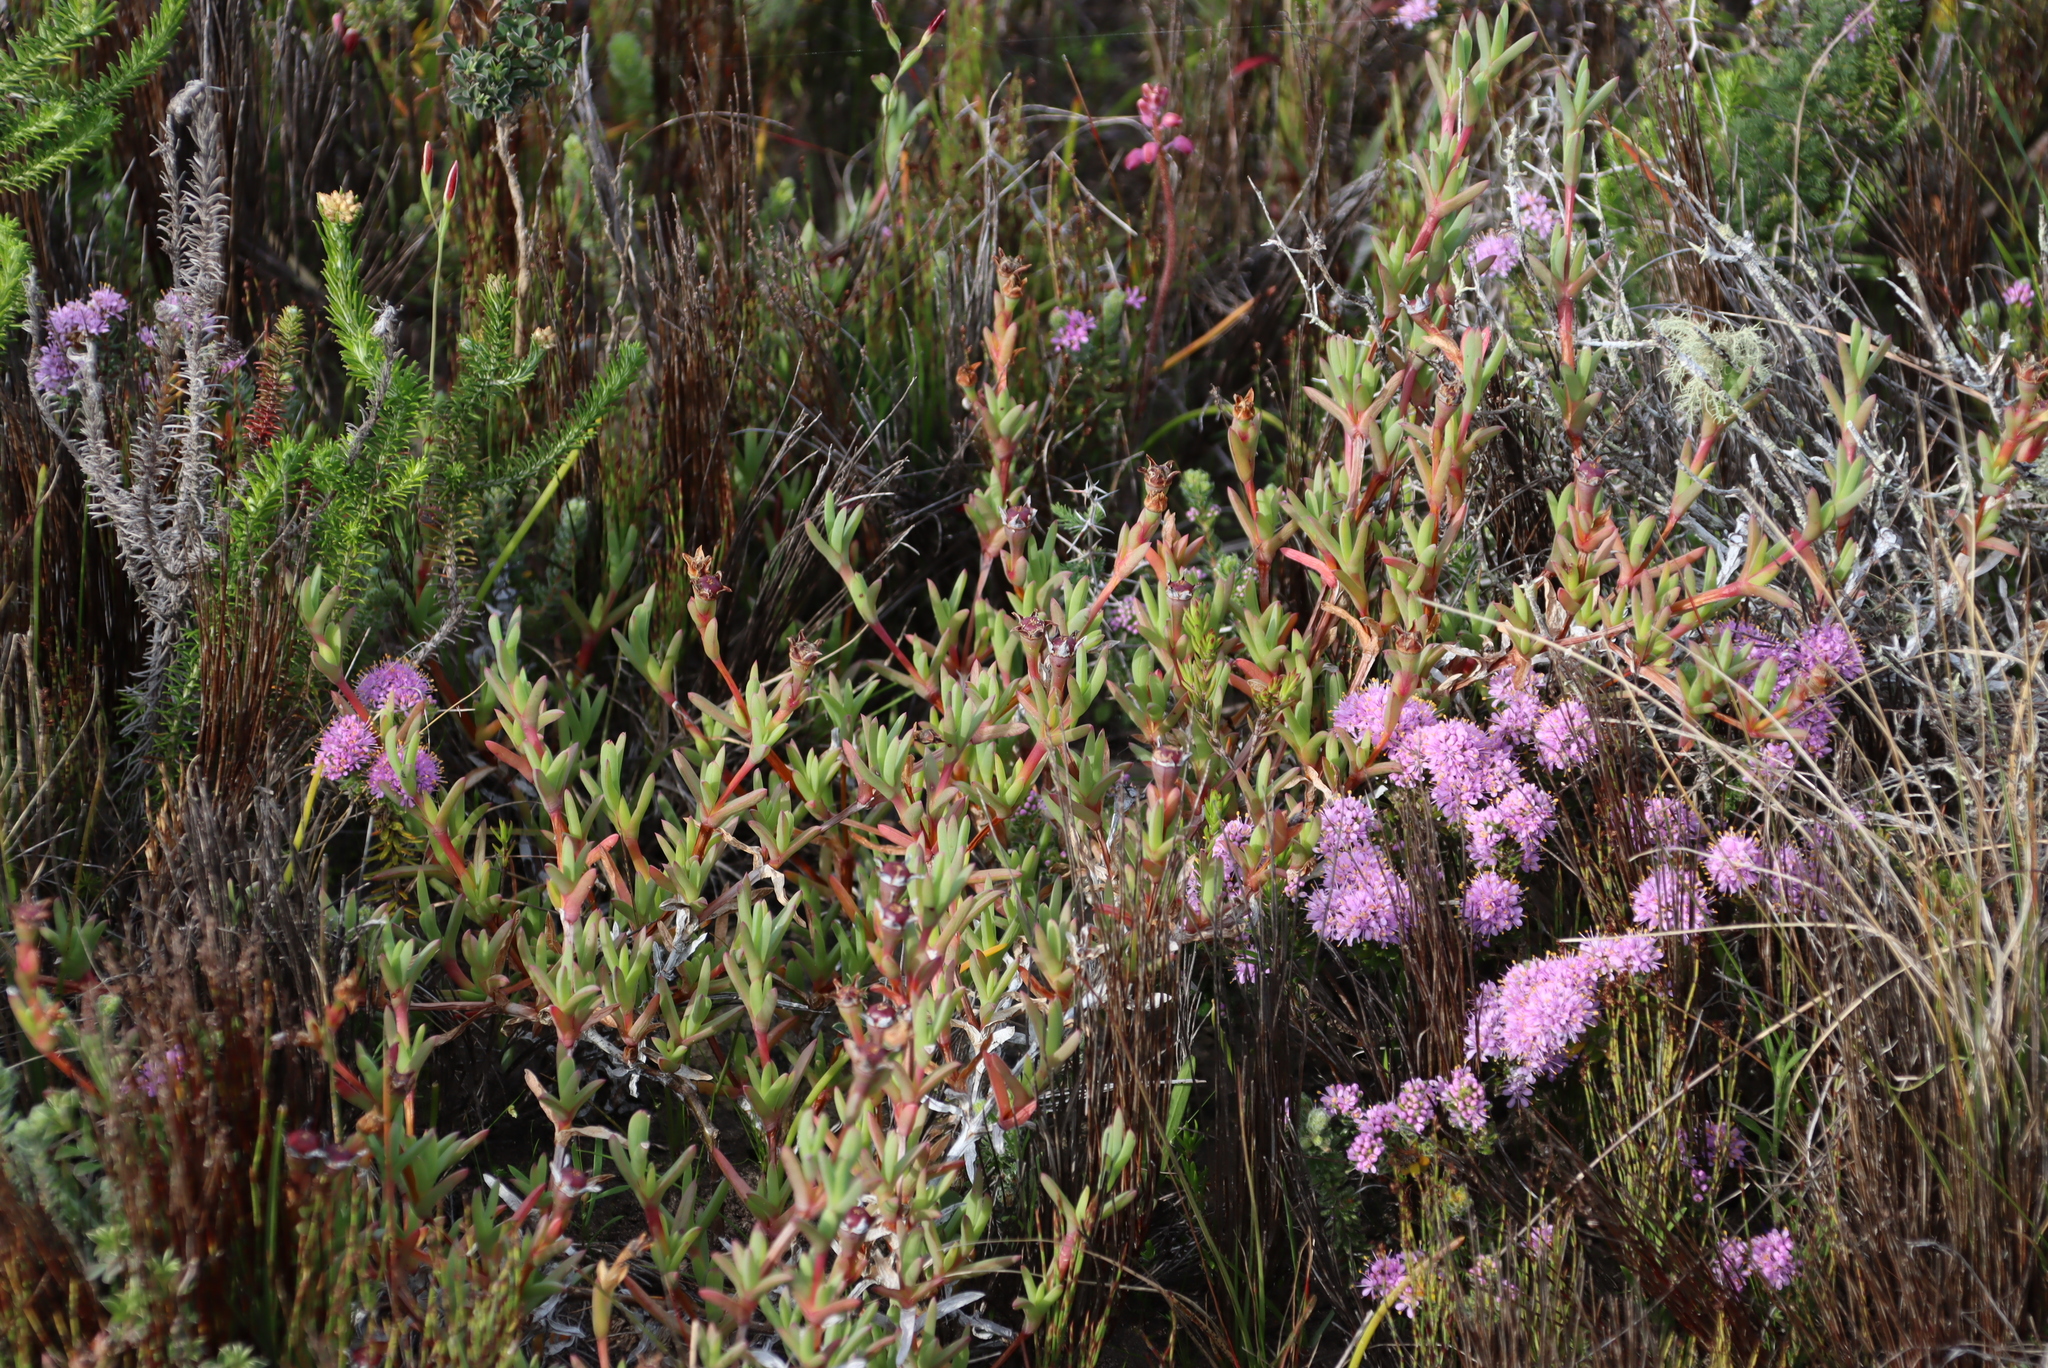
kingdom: Plantae
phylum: Tracheophyta
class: Magnoliopsida
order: Caryophyllales
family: Aizoaceae
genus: Ruschia
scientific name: Ruschia calcicola
